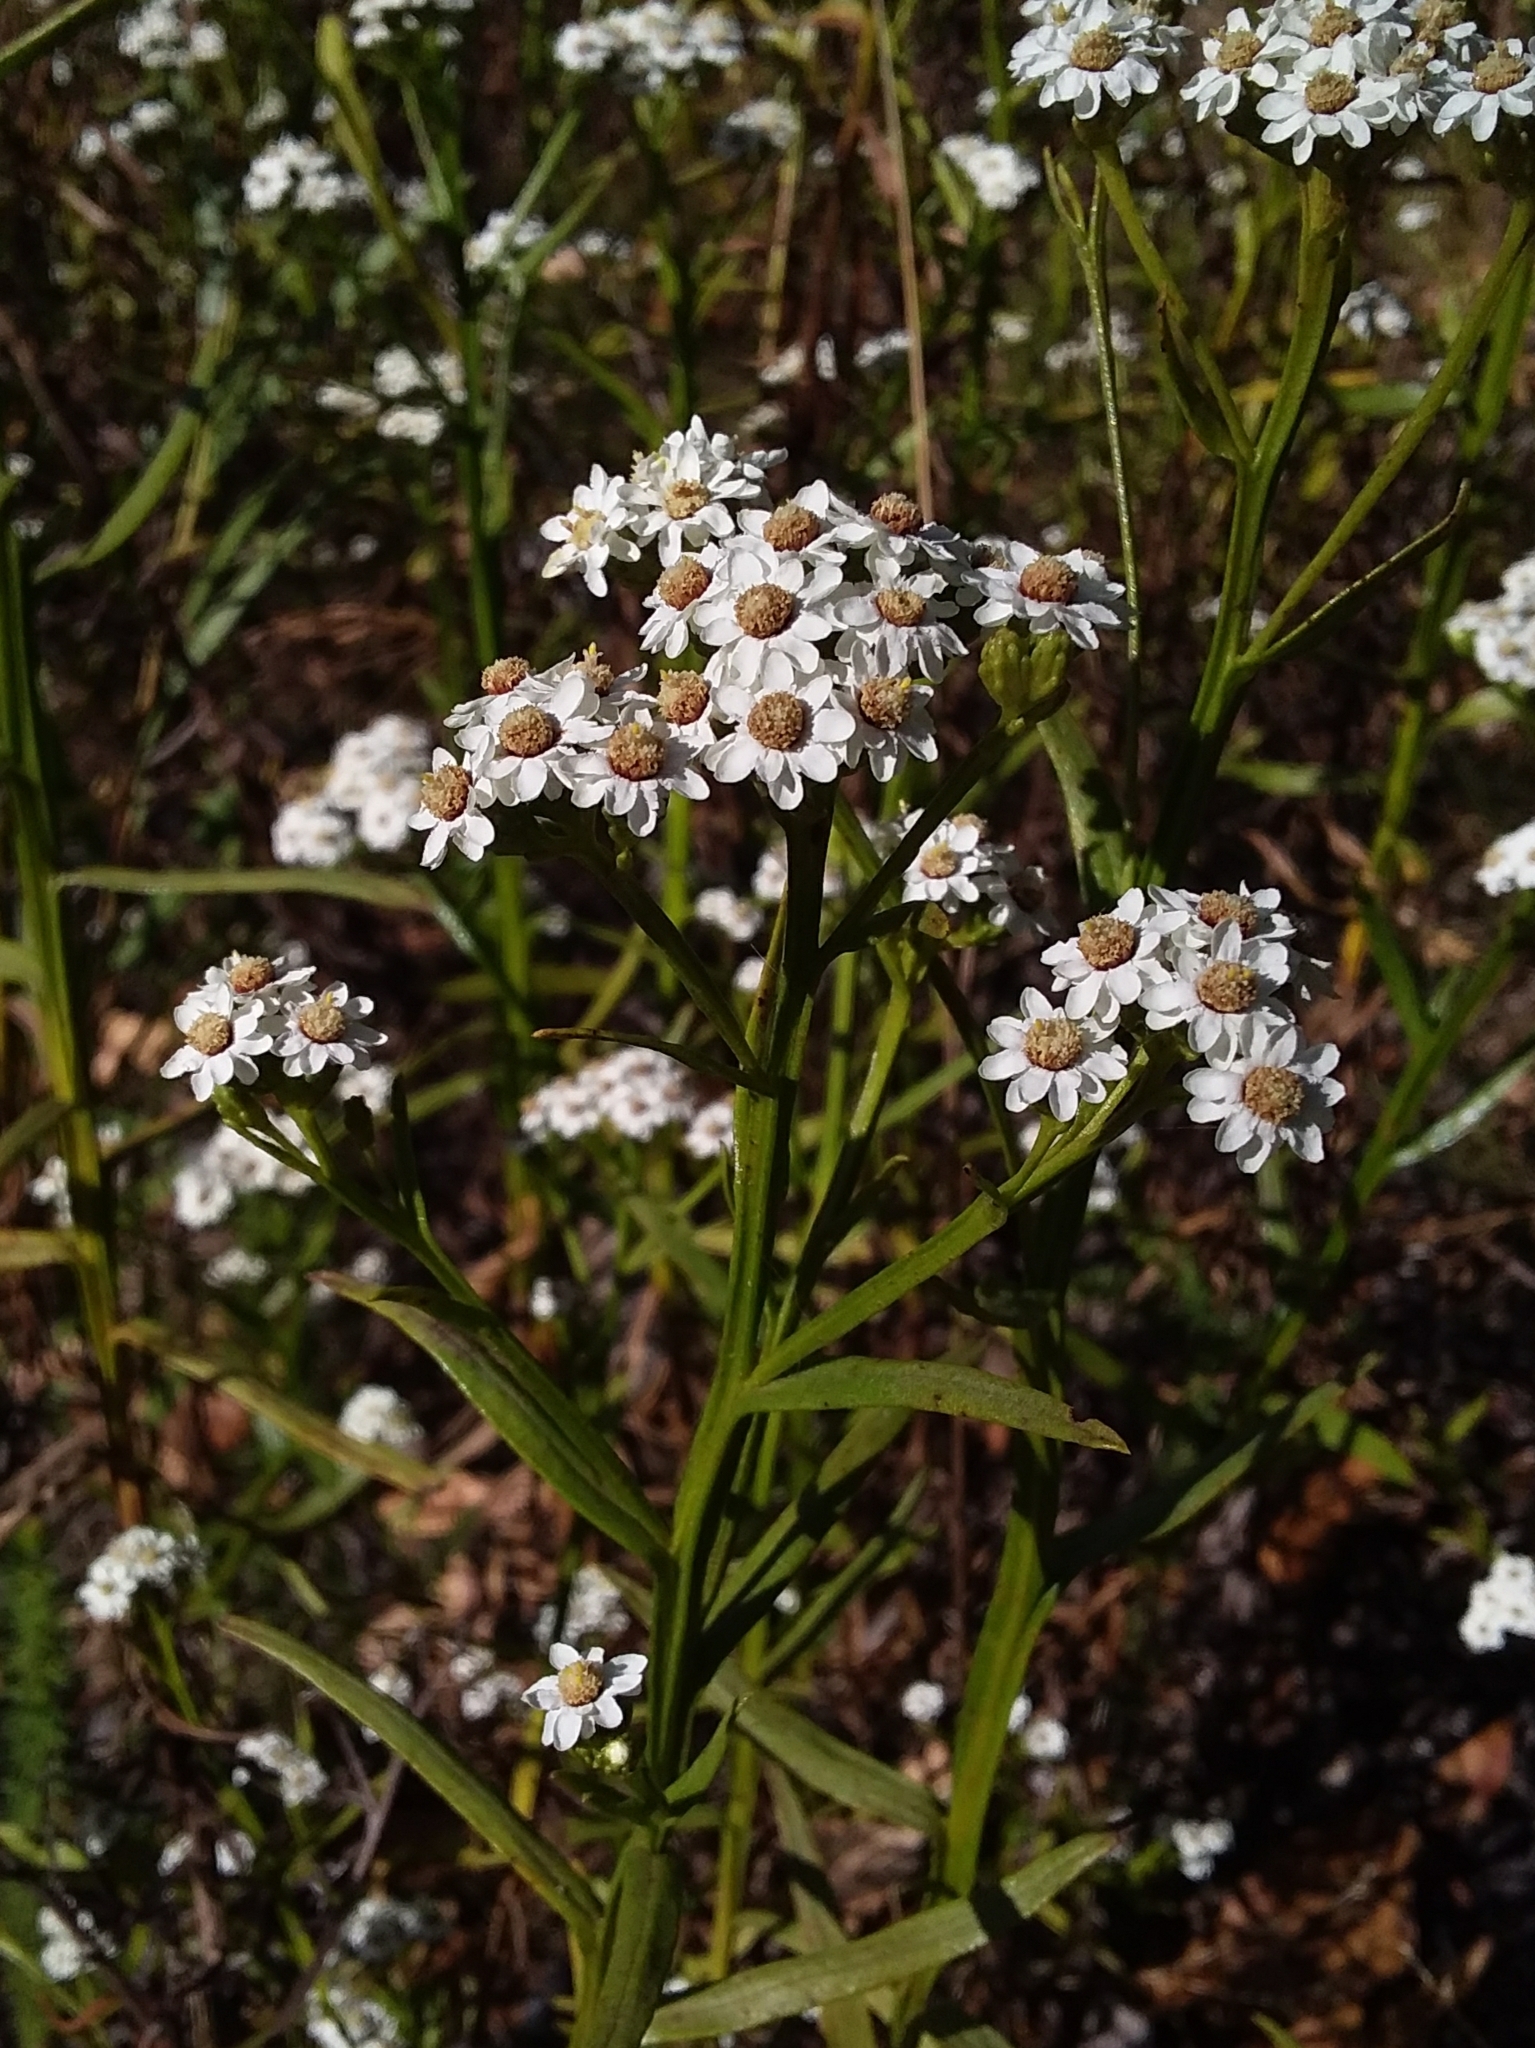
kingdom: Plantae
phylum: Tracheophyta
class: Magnoliopsida
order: Asterales
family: Asteraceae
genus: Ixodia
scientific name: Ixodia achillaeoides
